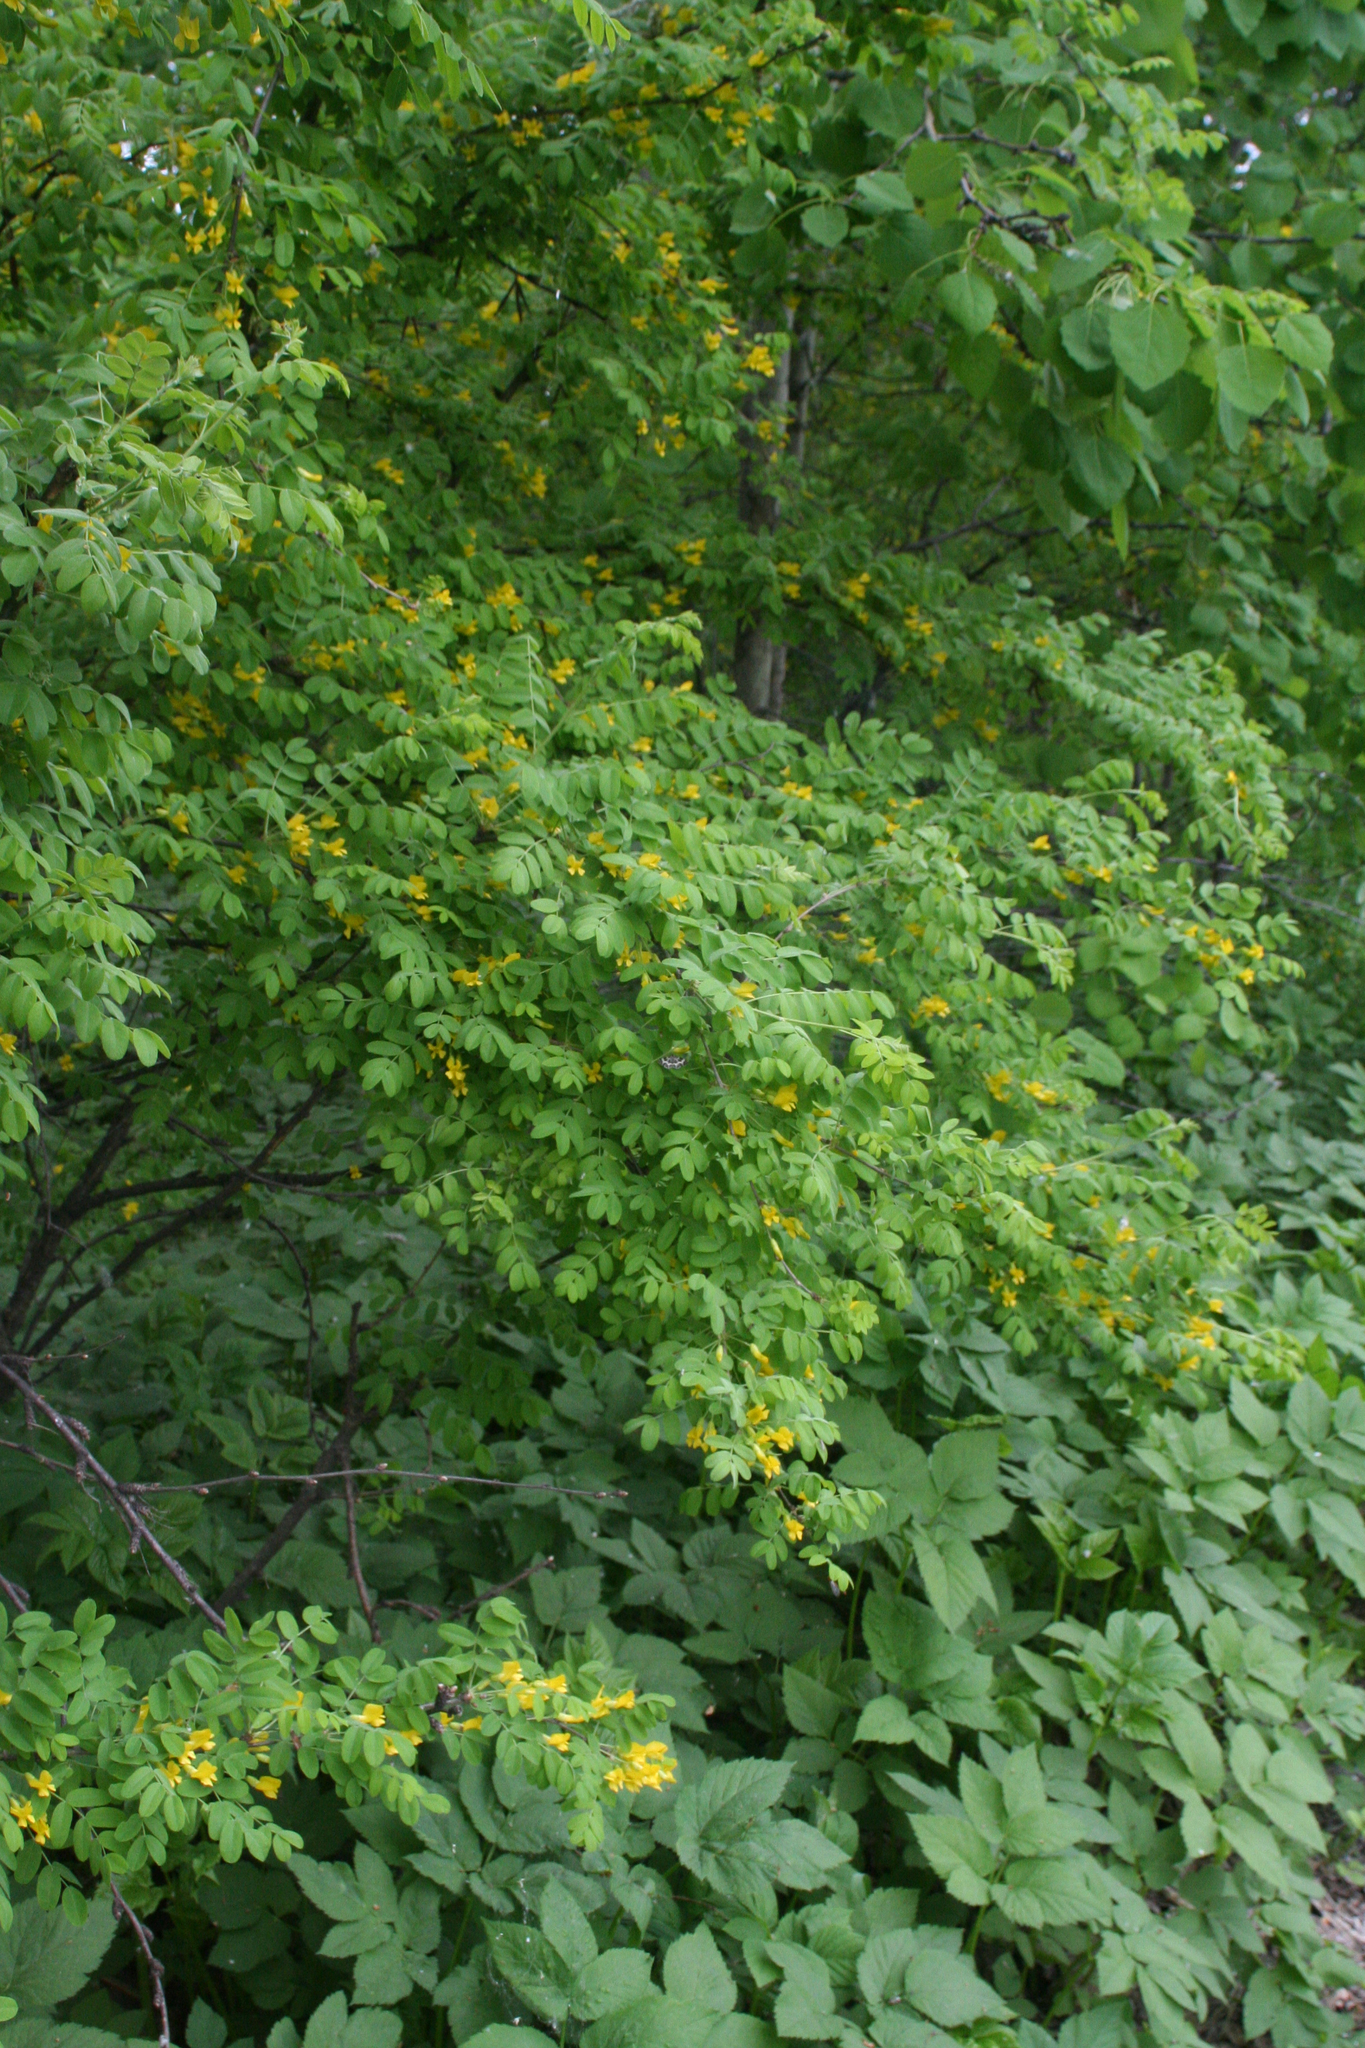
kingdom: Plantae
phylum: Tracheophyta
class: Magnoliopsida
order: Fabales
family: Fabaceae
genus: Caragana
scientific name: Caragana arborescens
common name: Siberian peashrub
